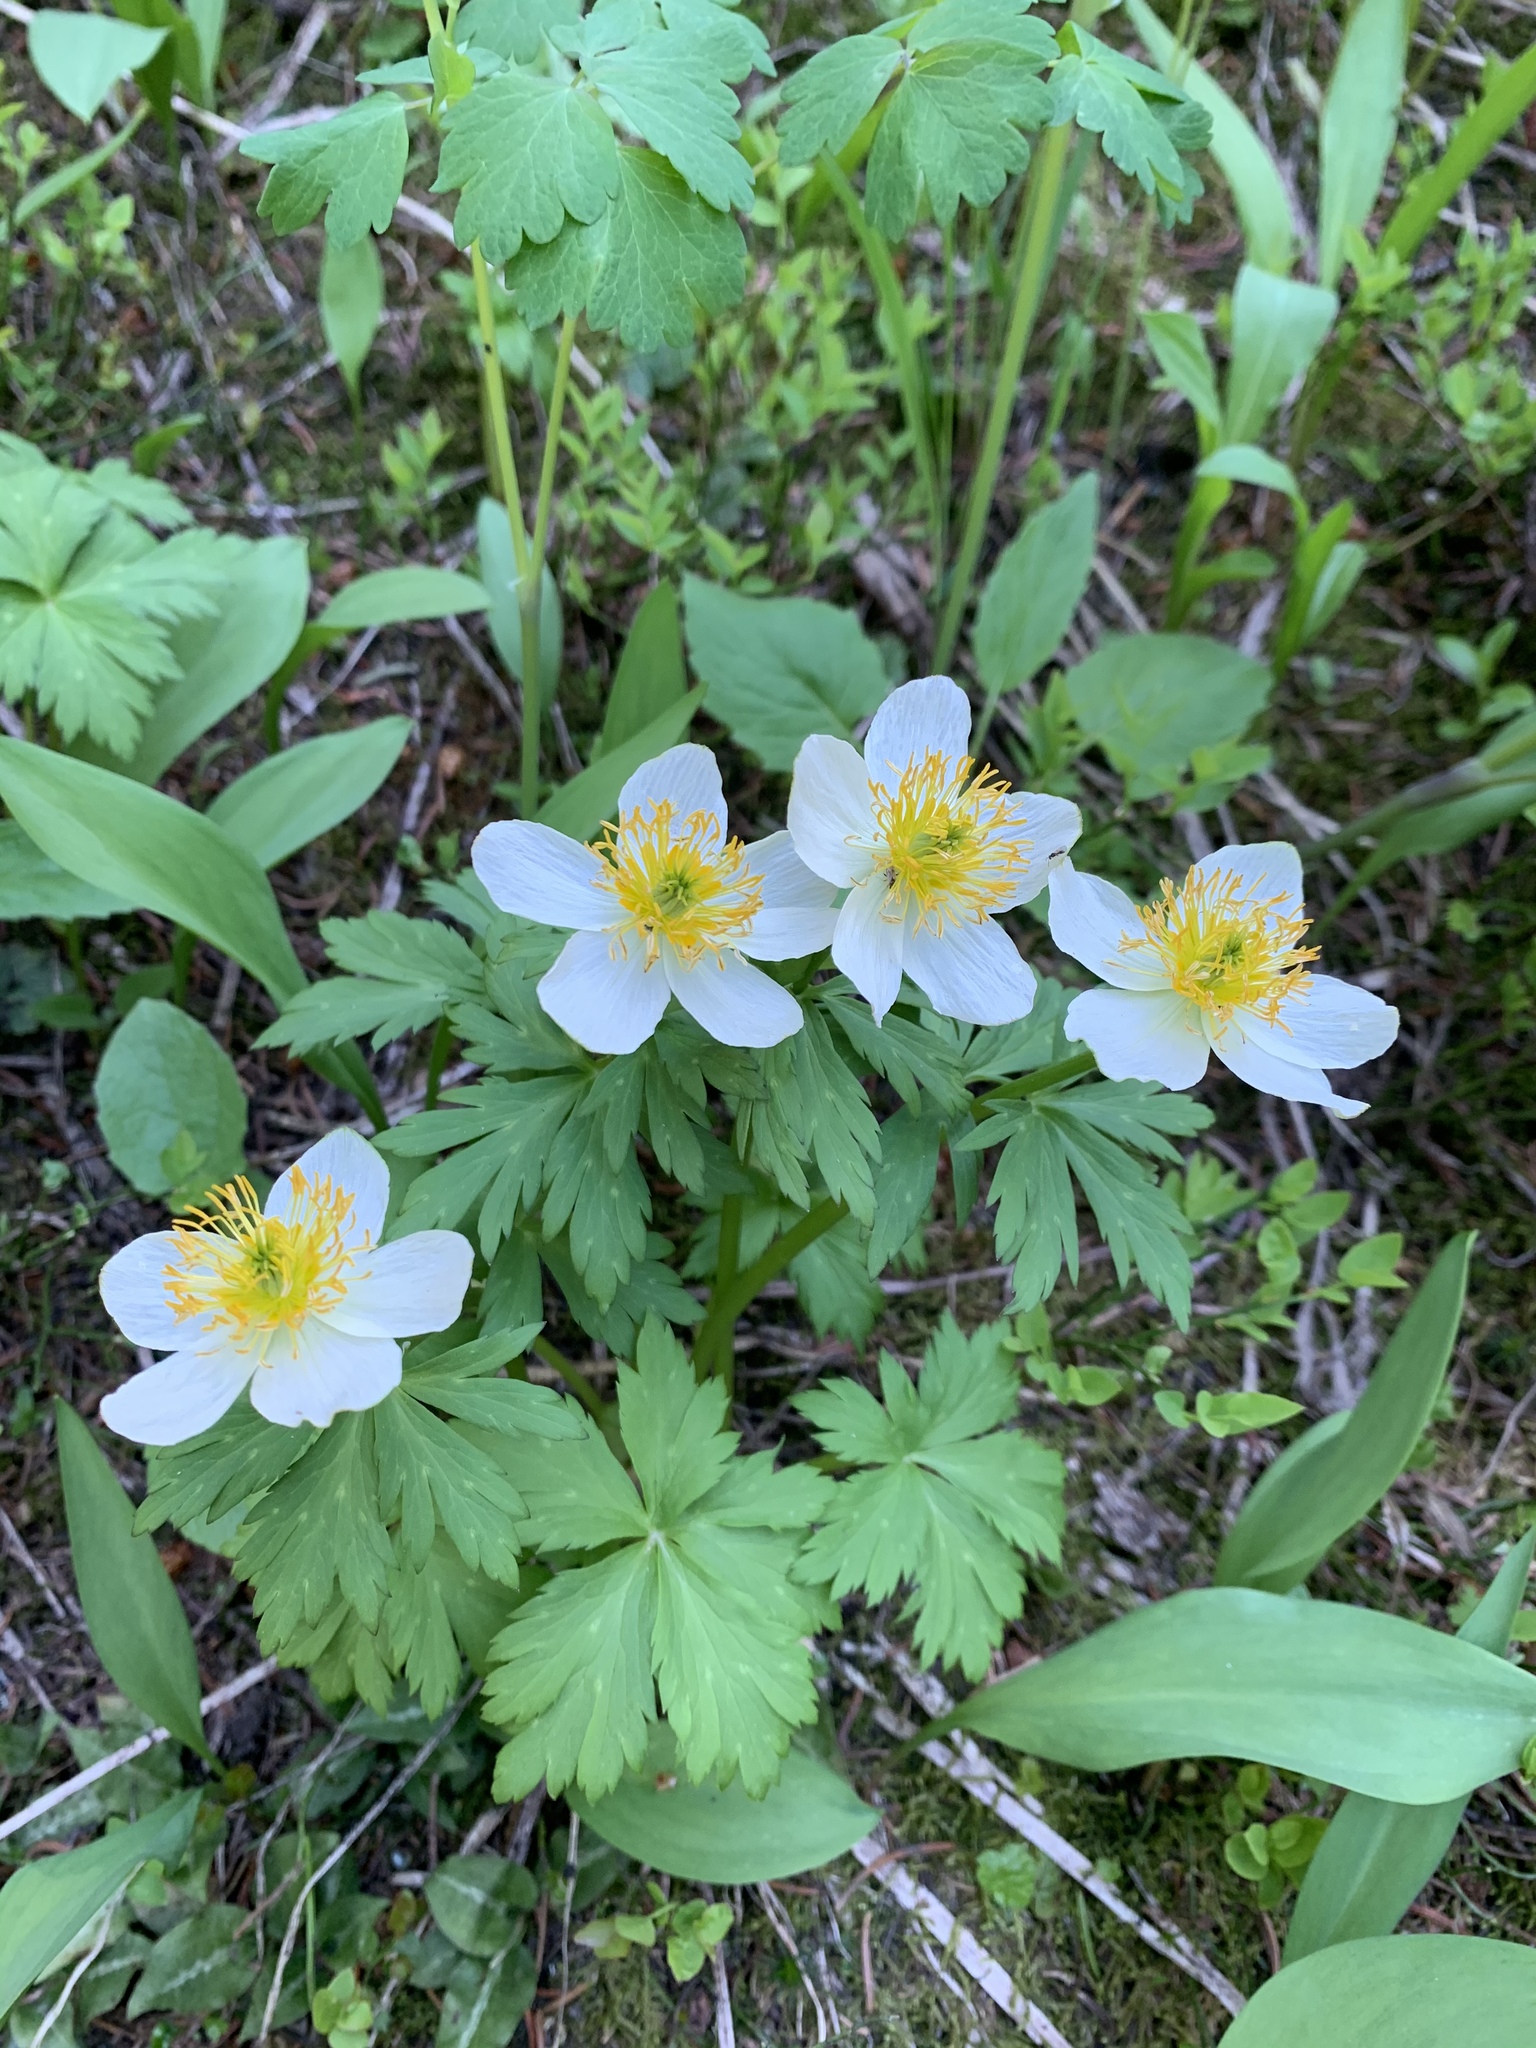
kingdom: Plantae
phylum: Tracheophyta
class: Magnoliopsida
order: Ranunculales
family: Ranunculaceae
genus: Trollius
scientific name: Trollius laxus
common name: American globeflower
